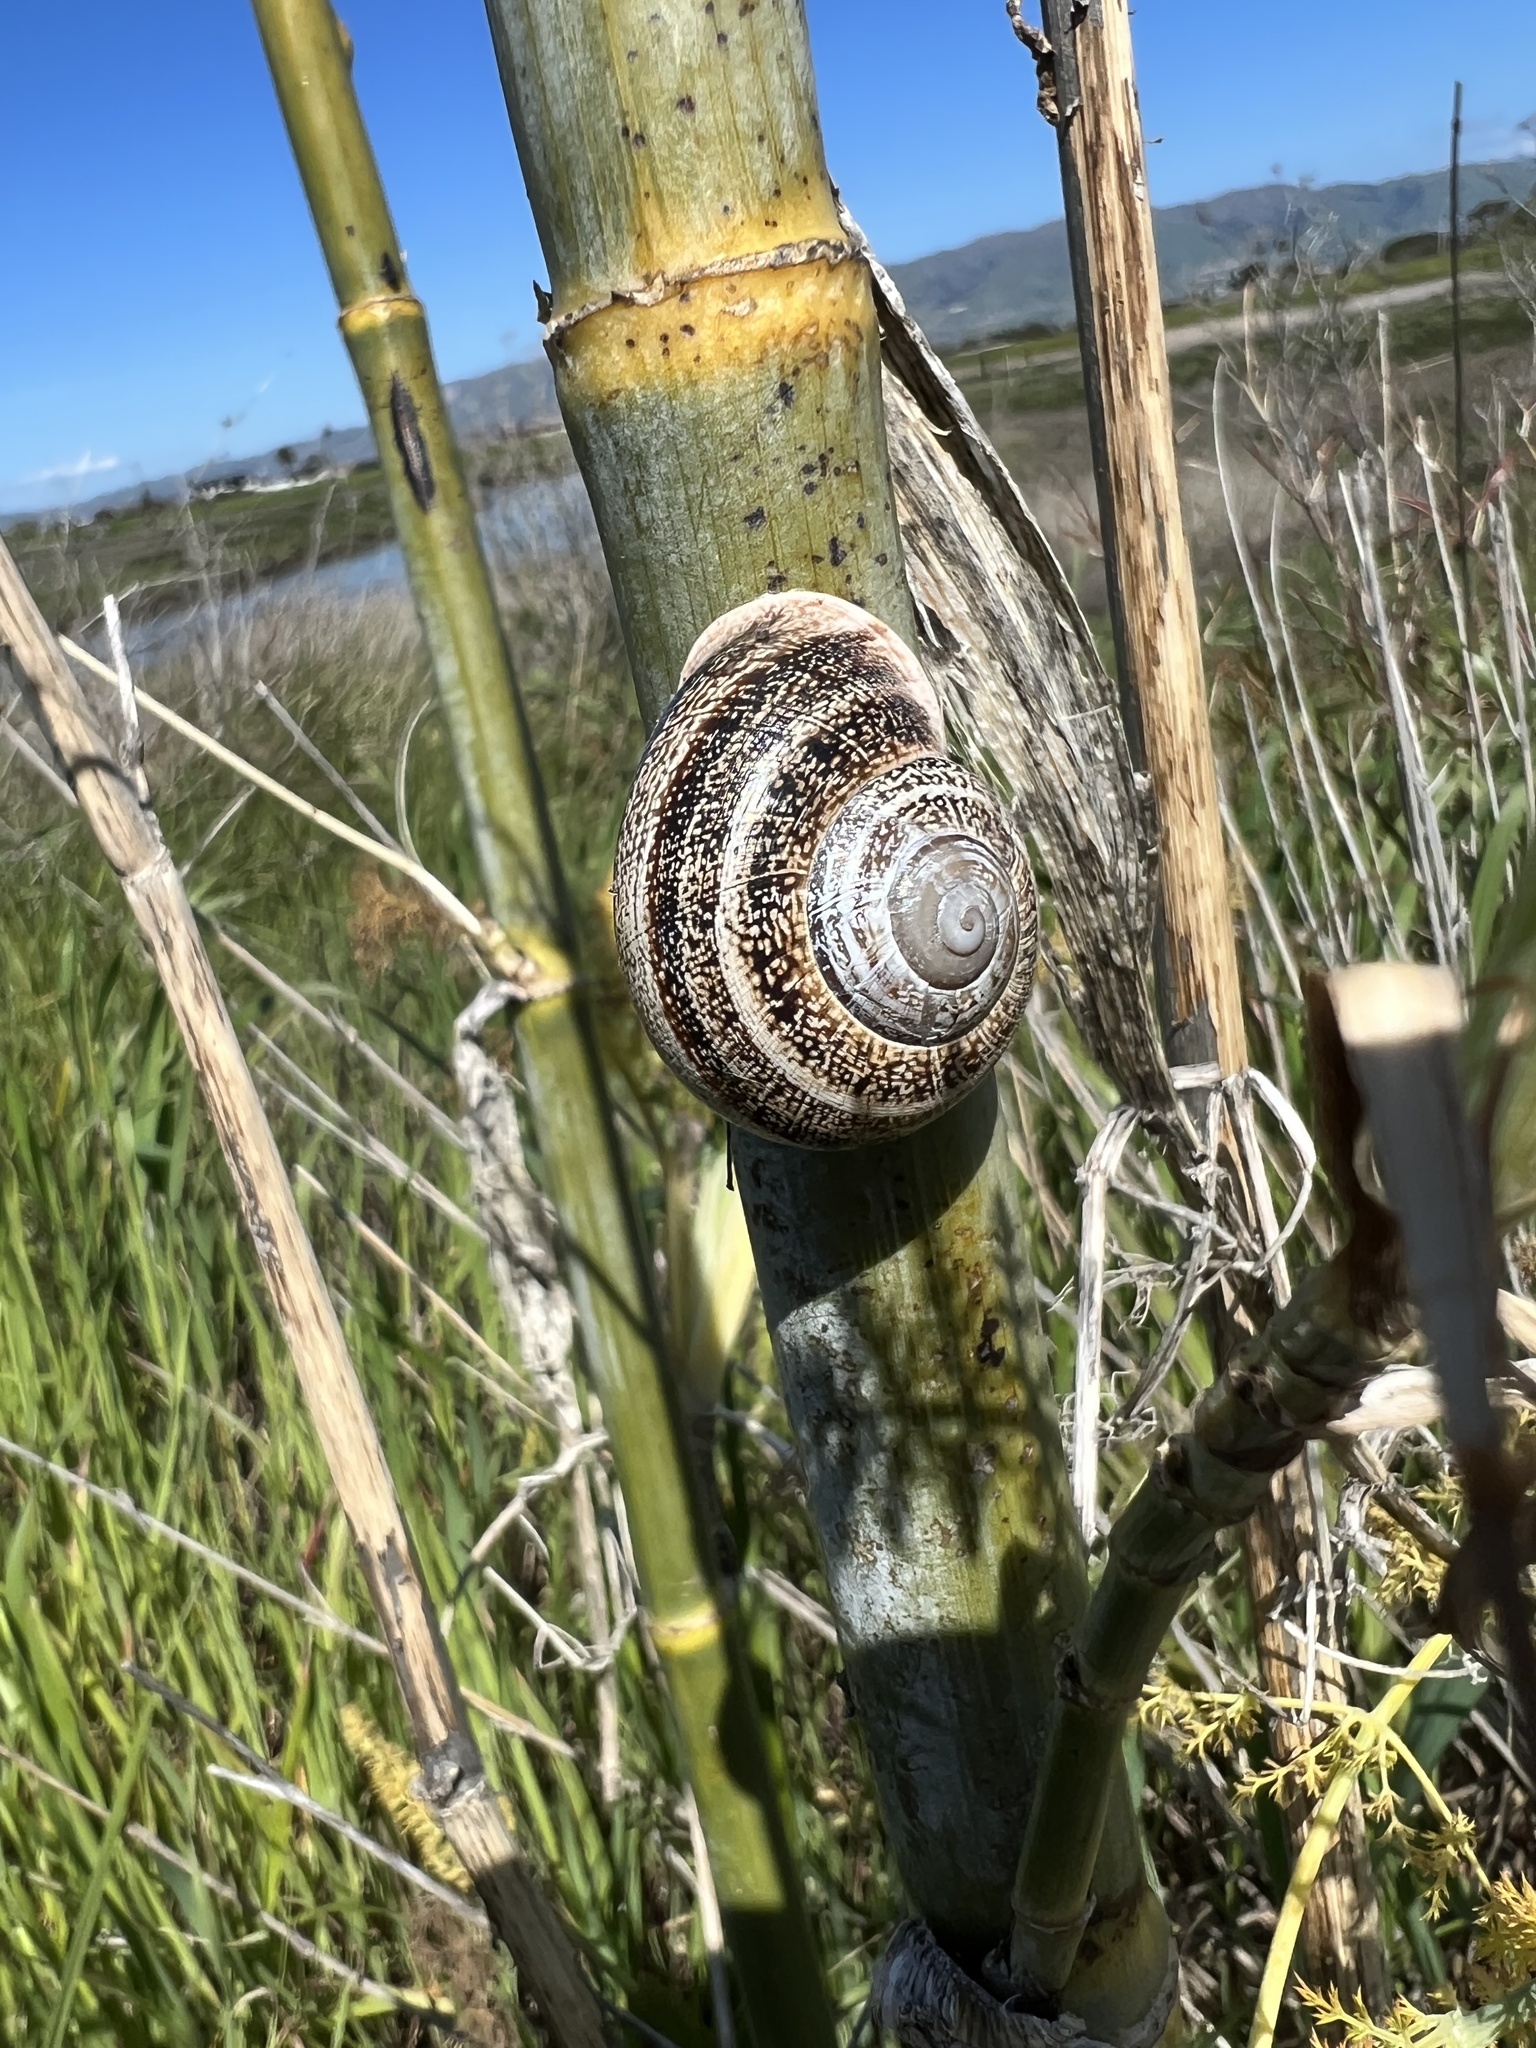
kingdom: Animalia
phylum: Mollusca
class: Gastropoda
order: Stylommatophora
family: Helicidae
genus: Otala
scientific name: Otala lactea
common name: Milk snail
